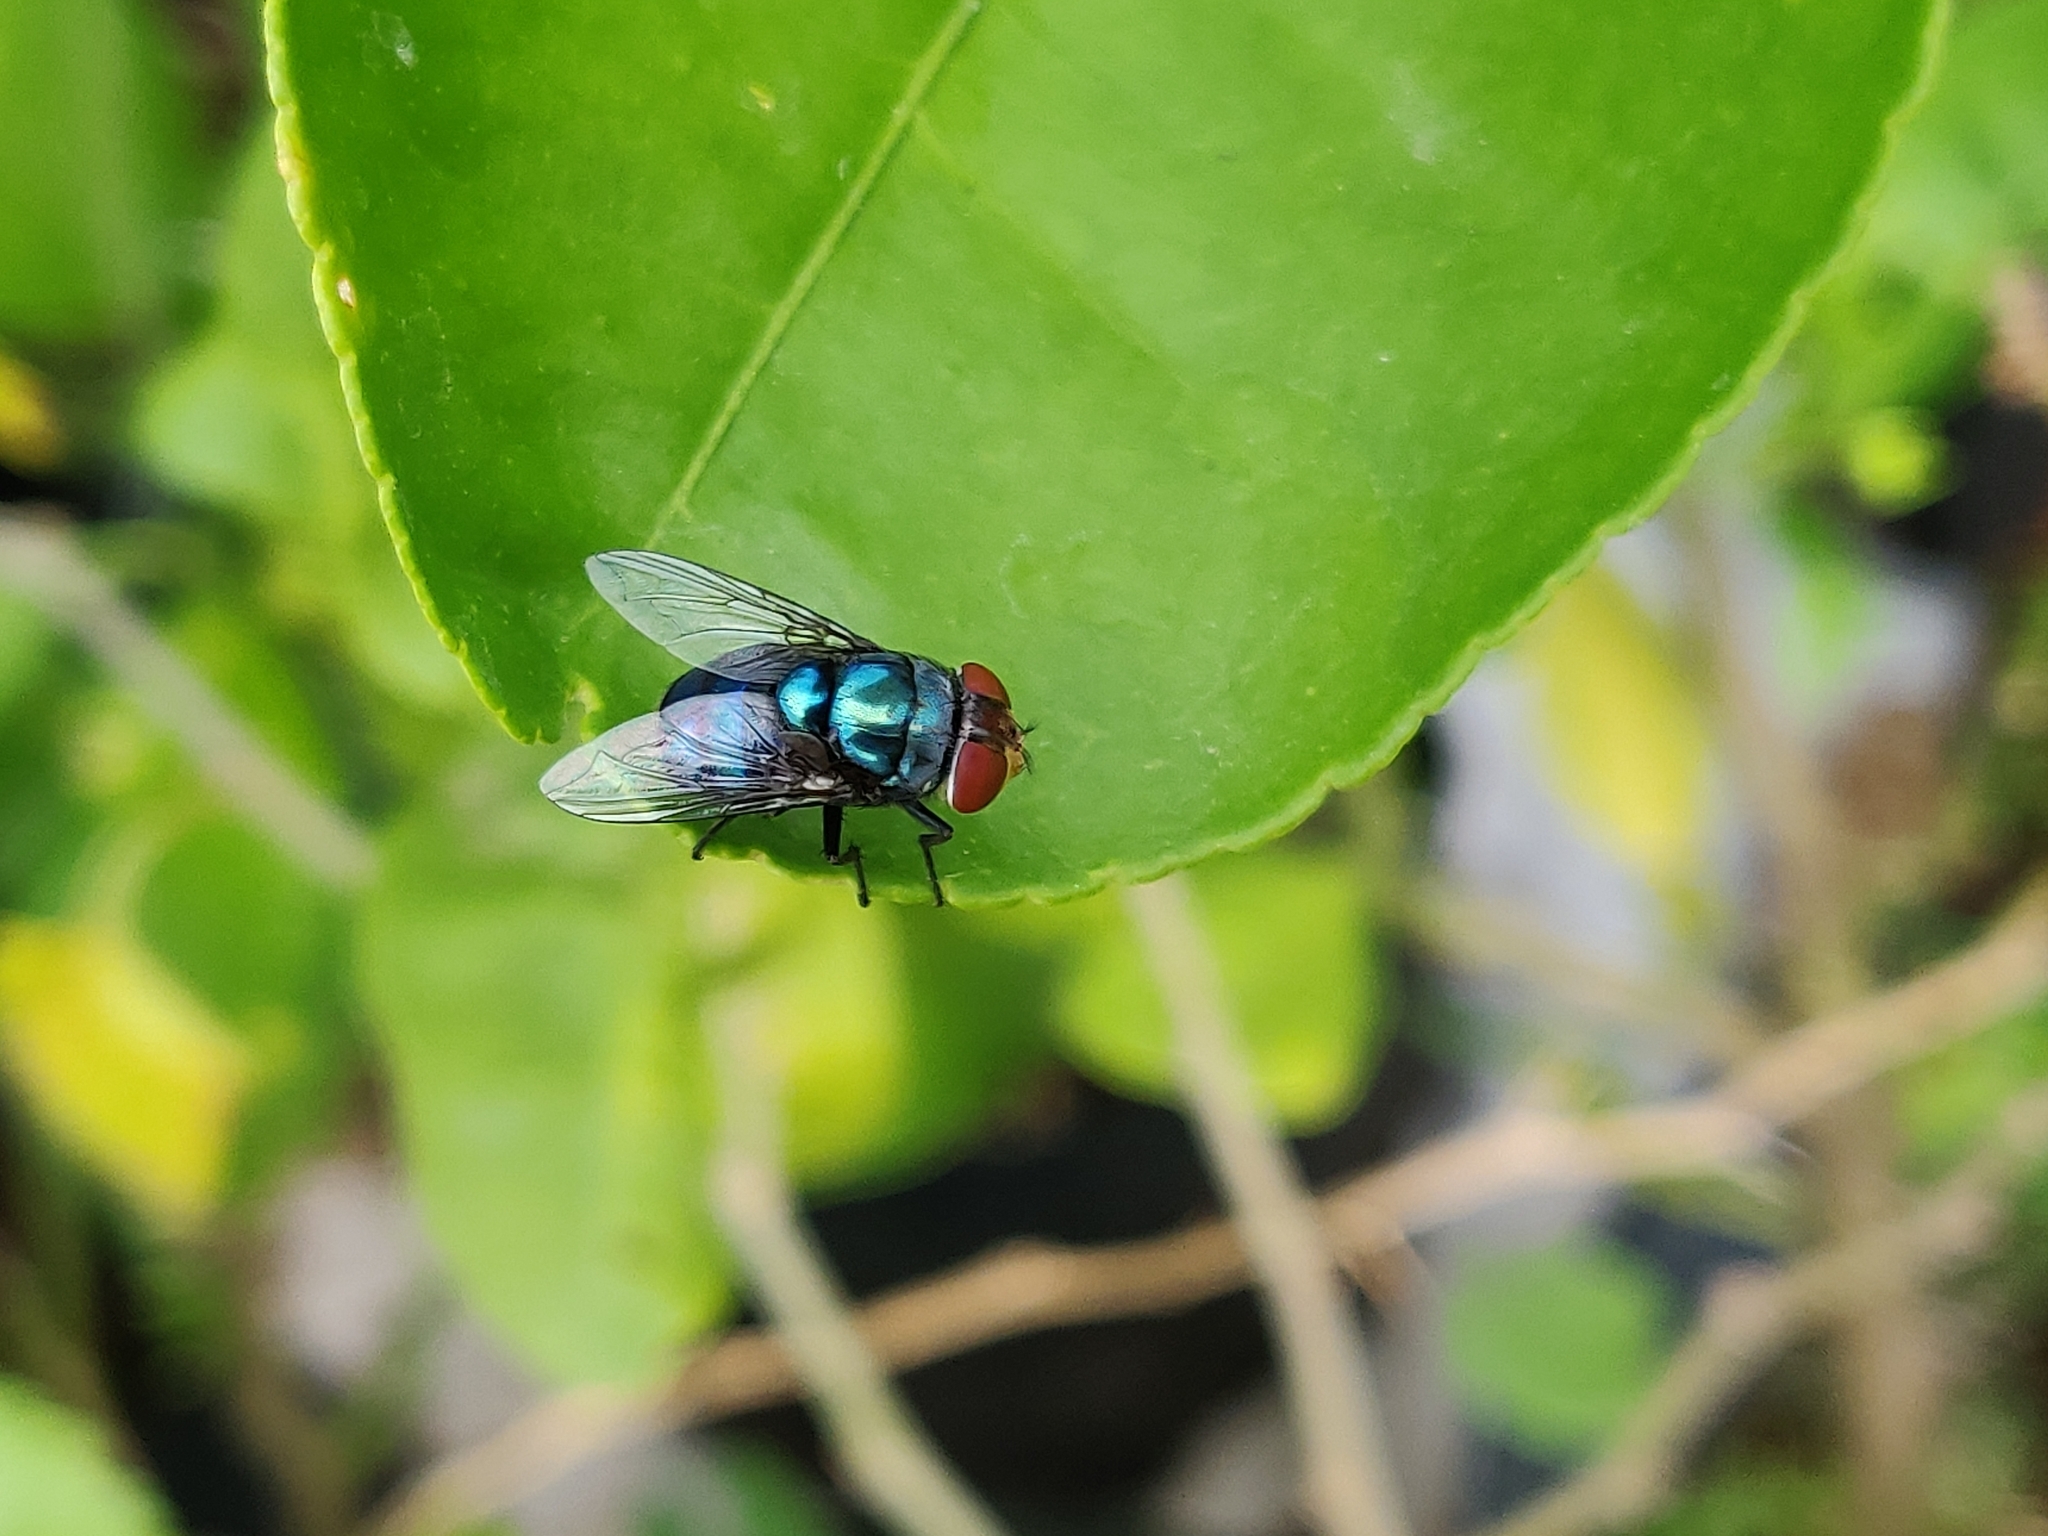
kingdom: Animalia
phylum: Arthropoda
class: Insecta
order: Diptera
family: Calliphoridae
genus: Chrysomya
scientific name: Chrysomya megacephala
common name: Blow fly
